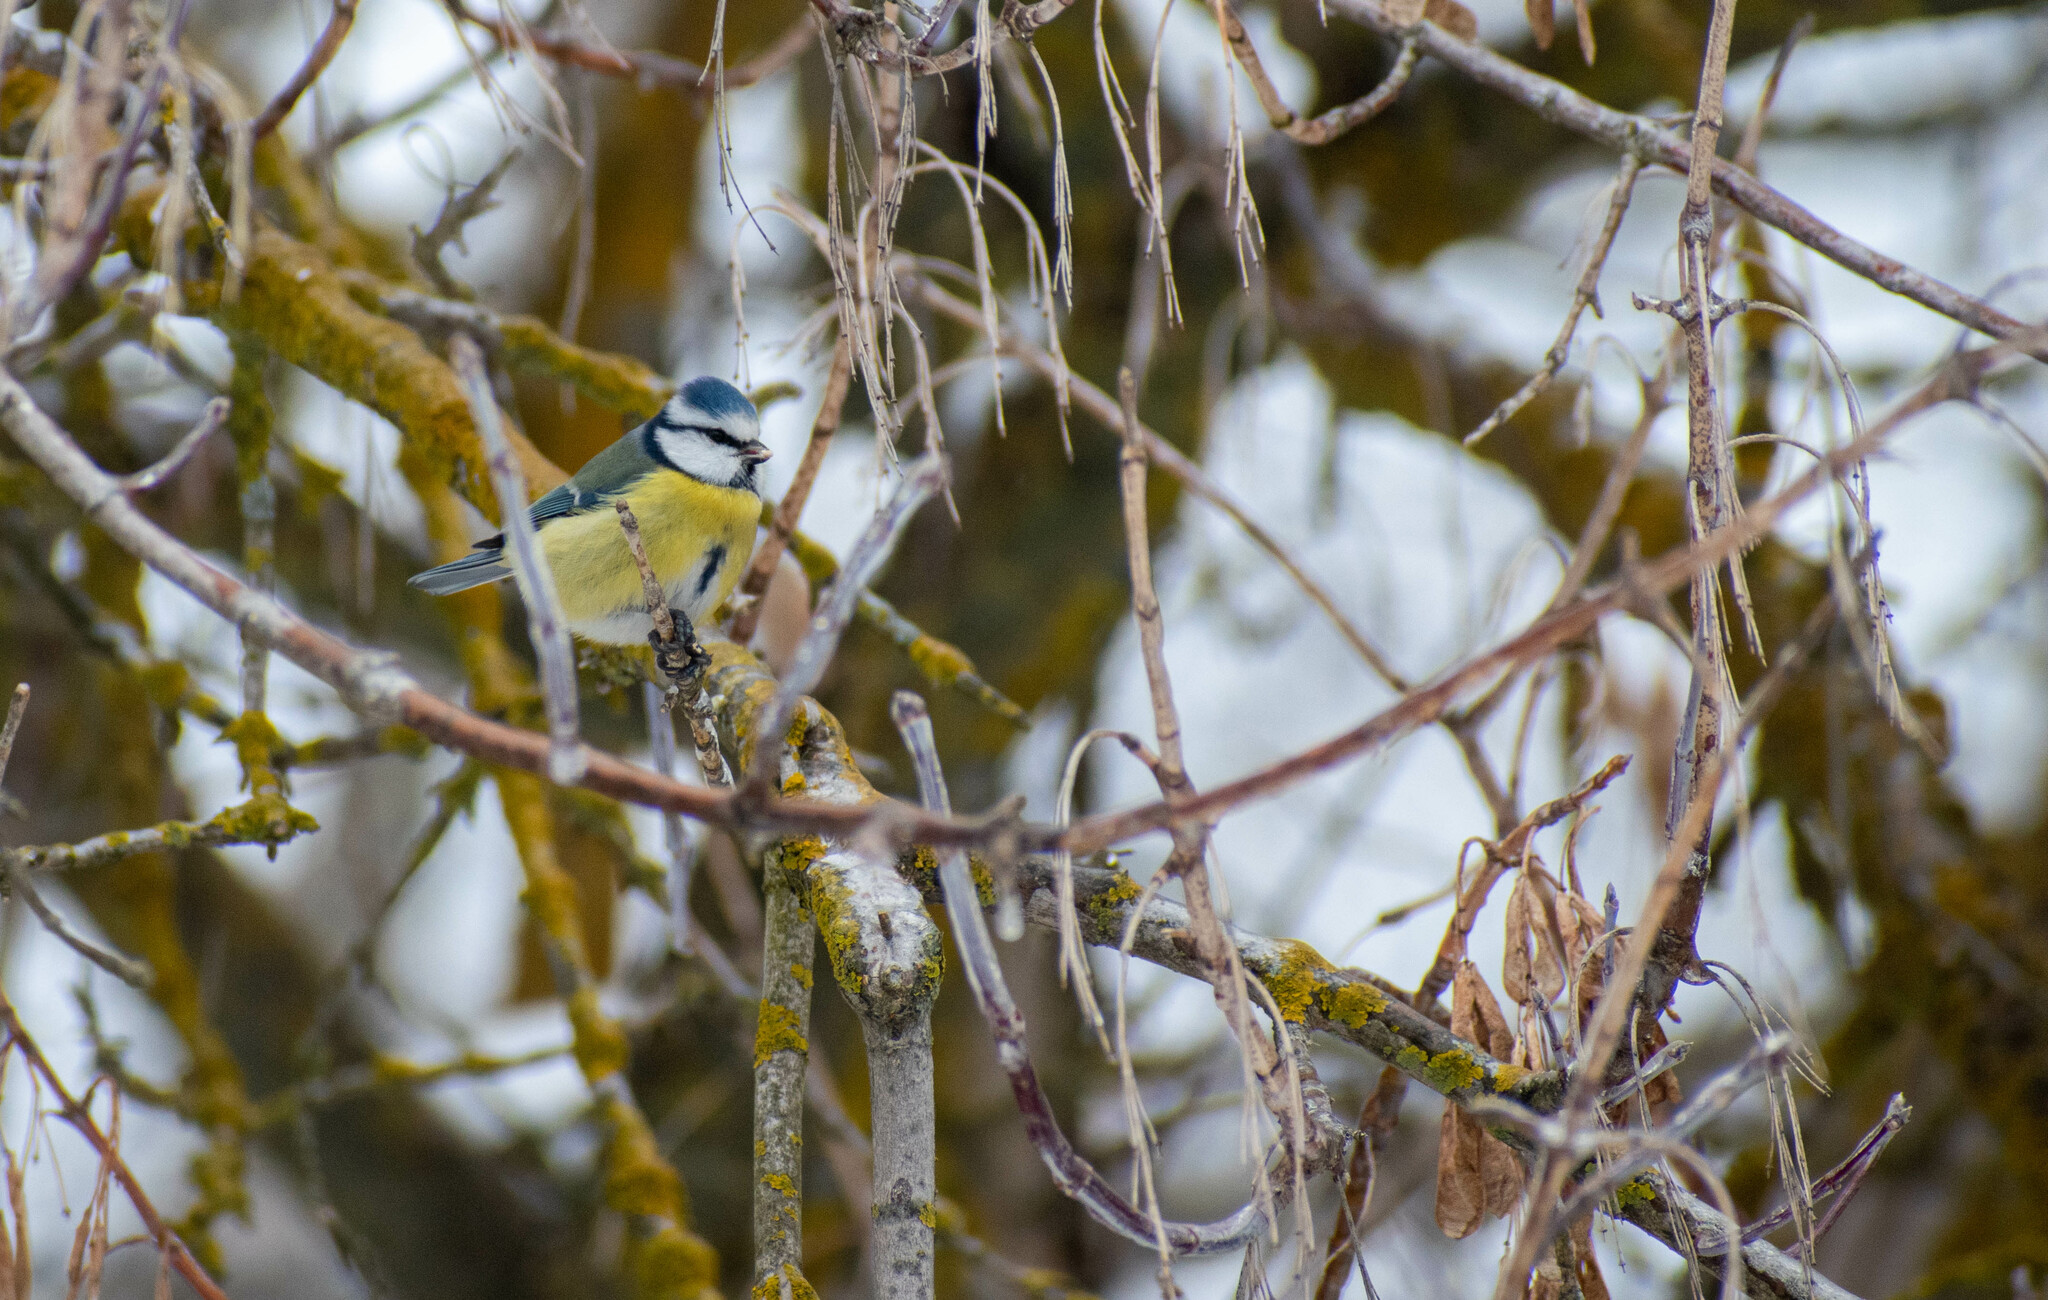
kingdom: Animalia
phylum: Chordata
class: Aves
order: Passeriformes
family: Paridae
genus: Cyanistes
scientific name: Cyanistes caeruleus
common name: Eurasian blue tit
